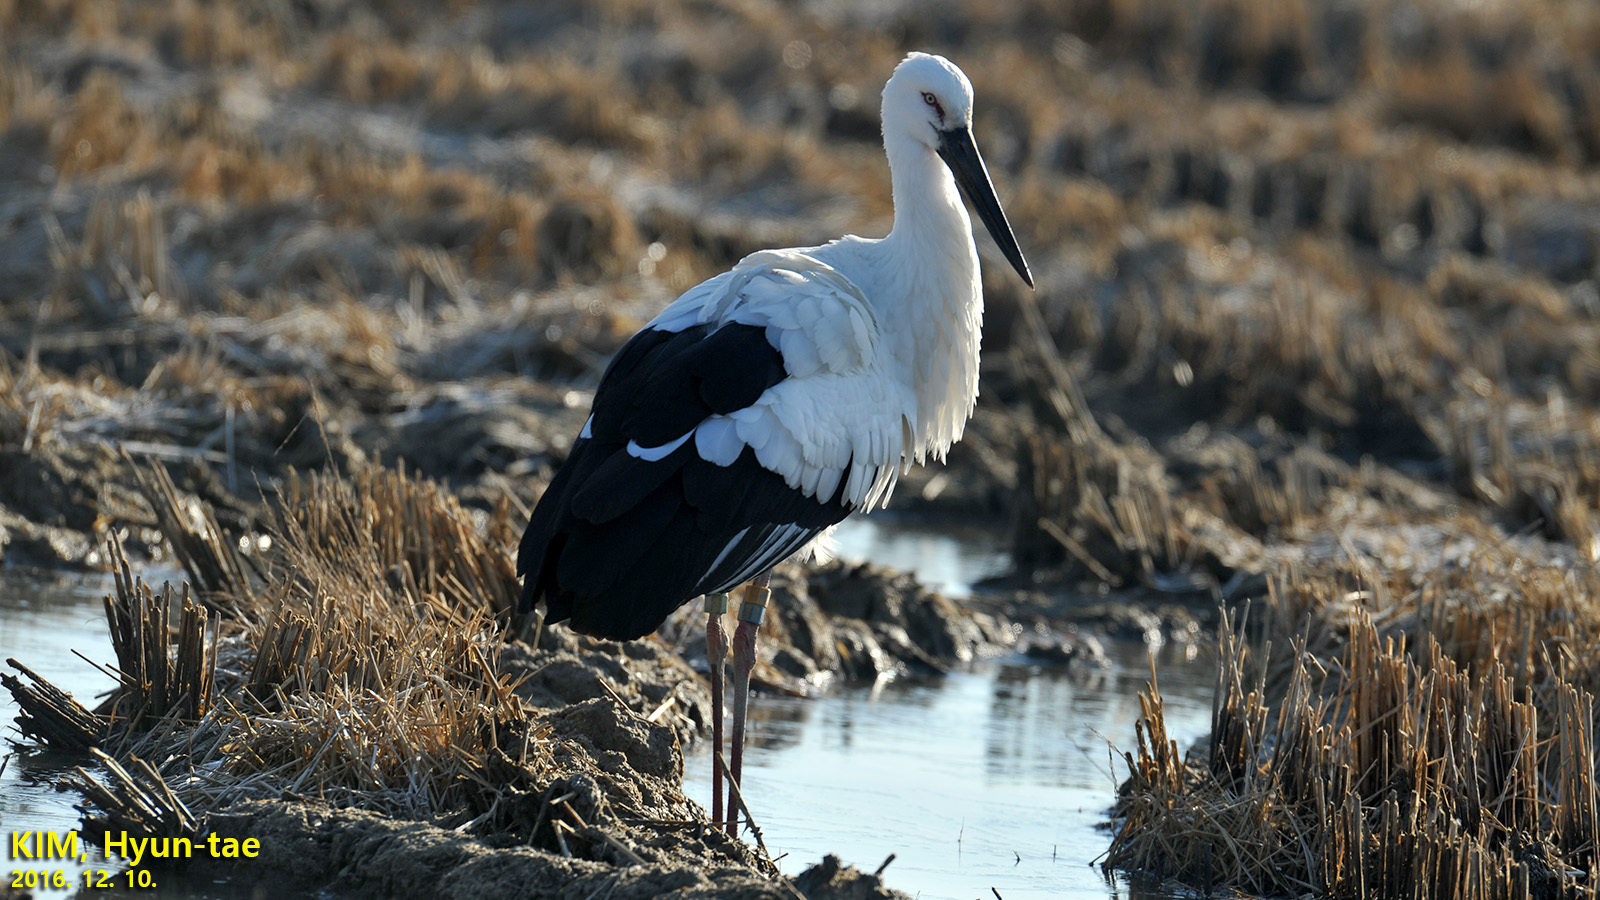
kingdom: Animalia
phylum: Chordata
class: Aves
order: Ciconiiformes
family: Ciconiidae
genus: Ciconia
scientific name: Ciconia boyciana
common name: Oriental stork
